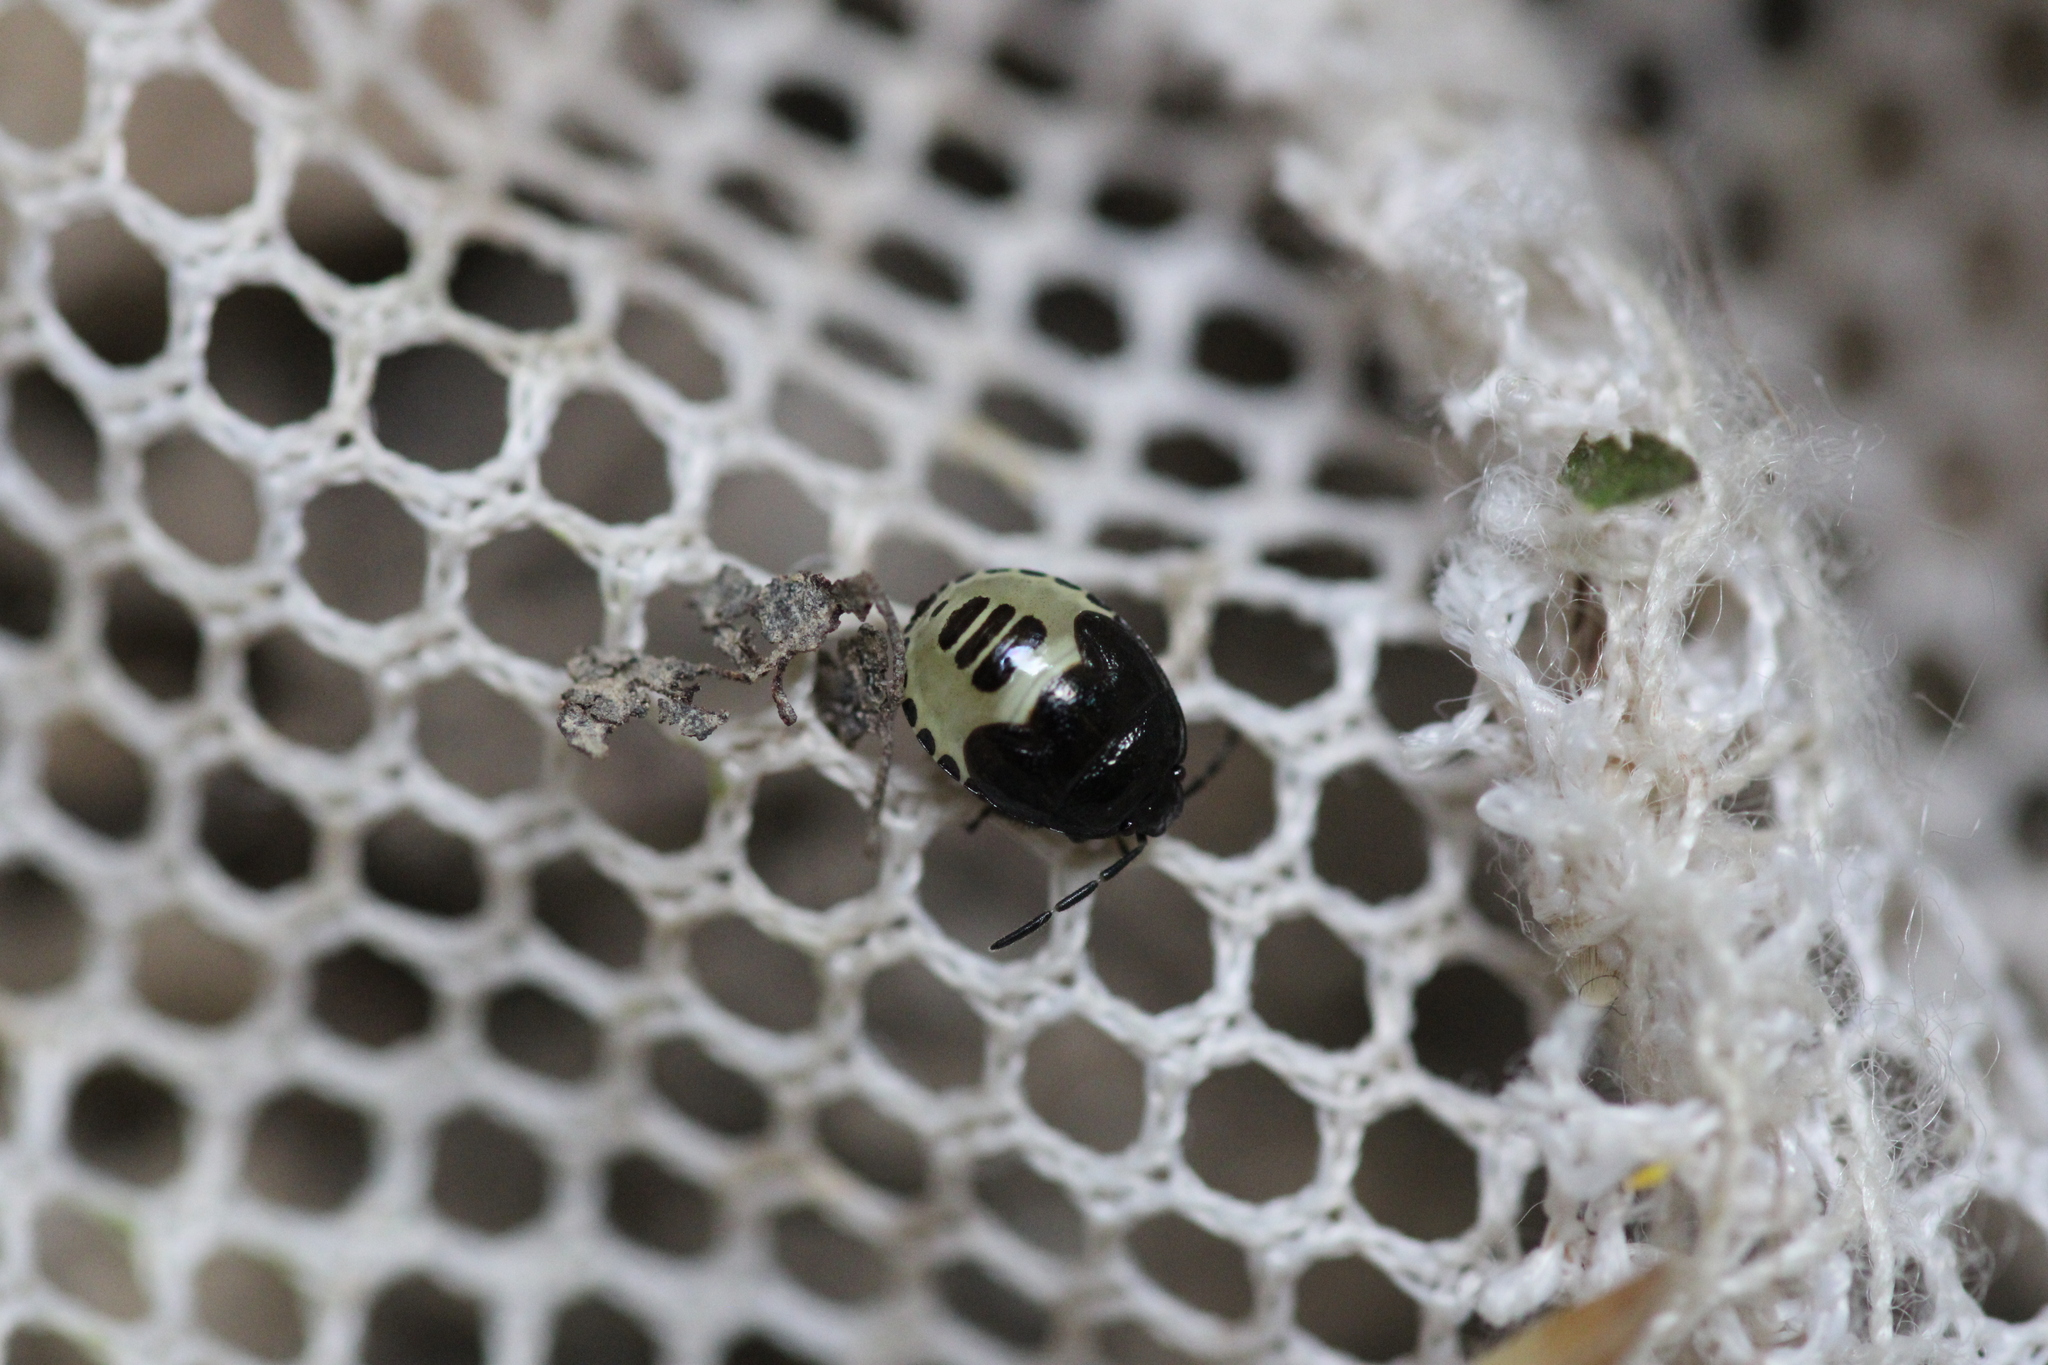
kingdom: Animalia
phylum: Arthropoda
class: Insecta
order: Hemiptera
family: Cydnidae
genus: Tritomegas
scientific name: Tritomegas bicolor
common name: Pied shieldbug
